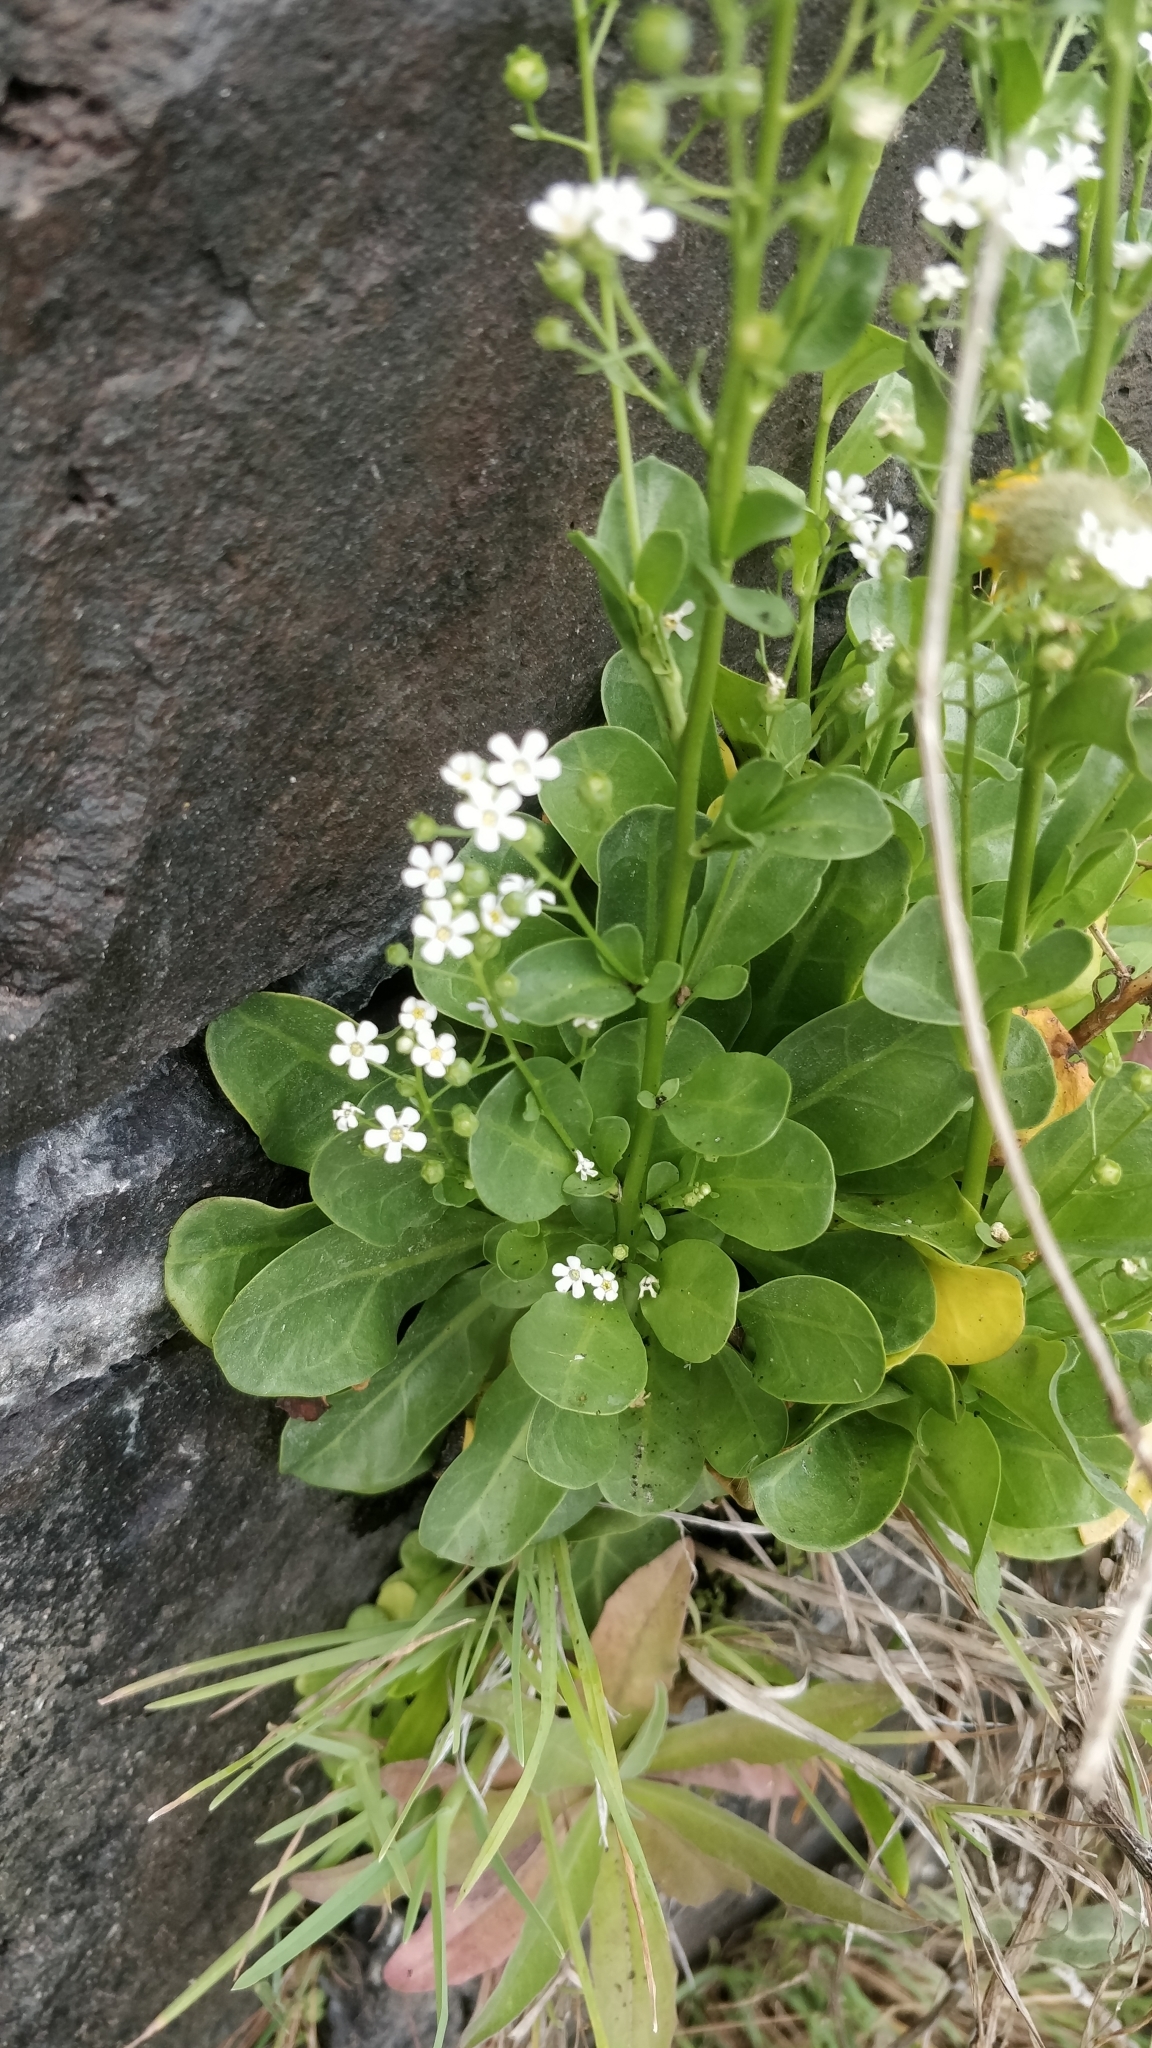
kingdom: Plantae
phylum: Tracheophyta
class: Magnoliopsida
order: Ericales
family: Primulaceae
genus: Samolus
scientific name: Samolus valerandi
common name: Brookweed
